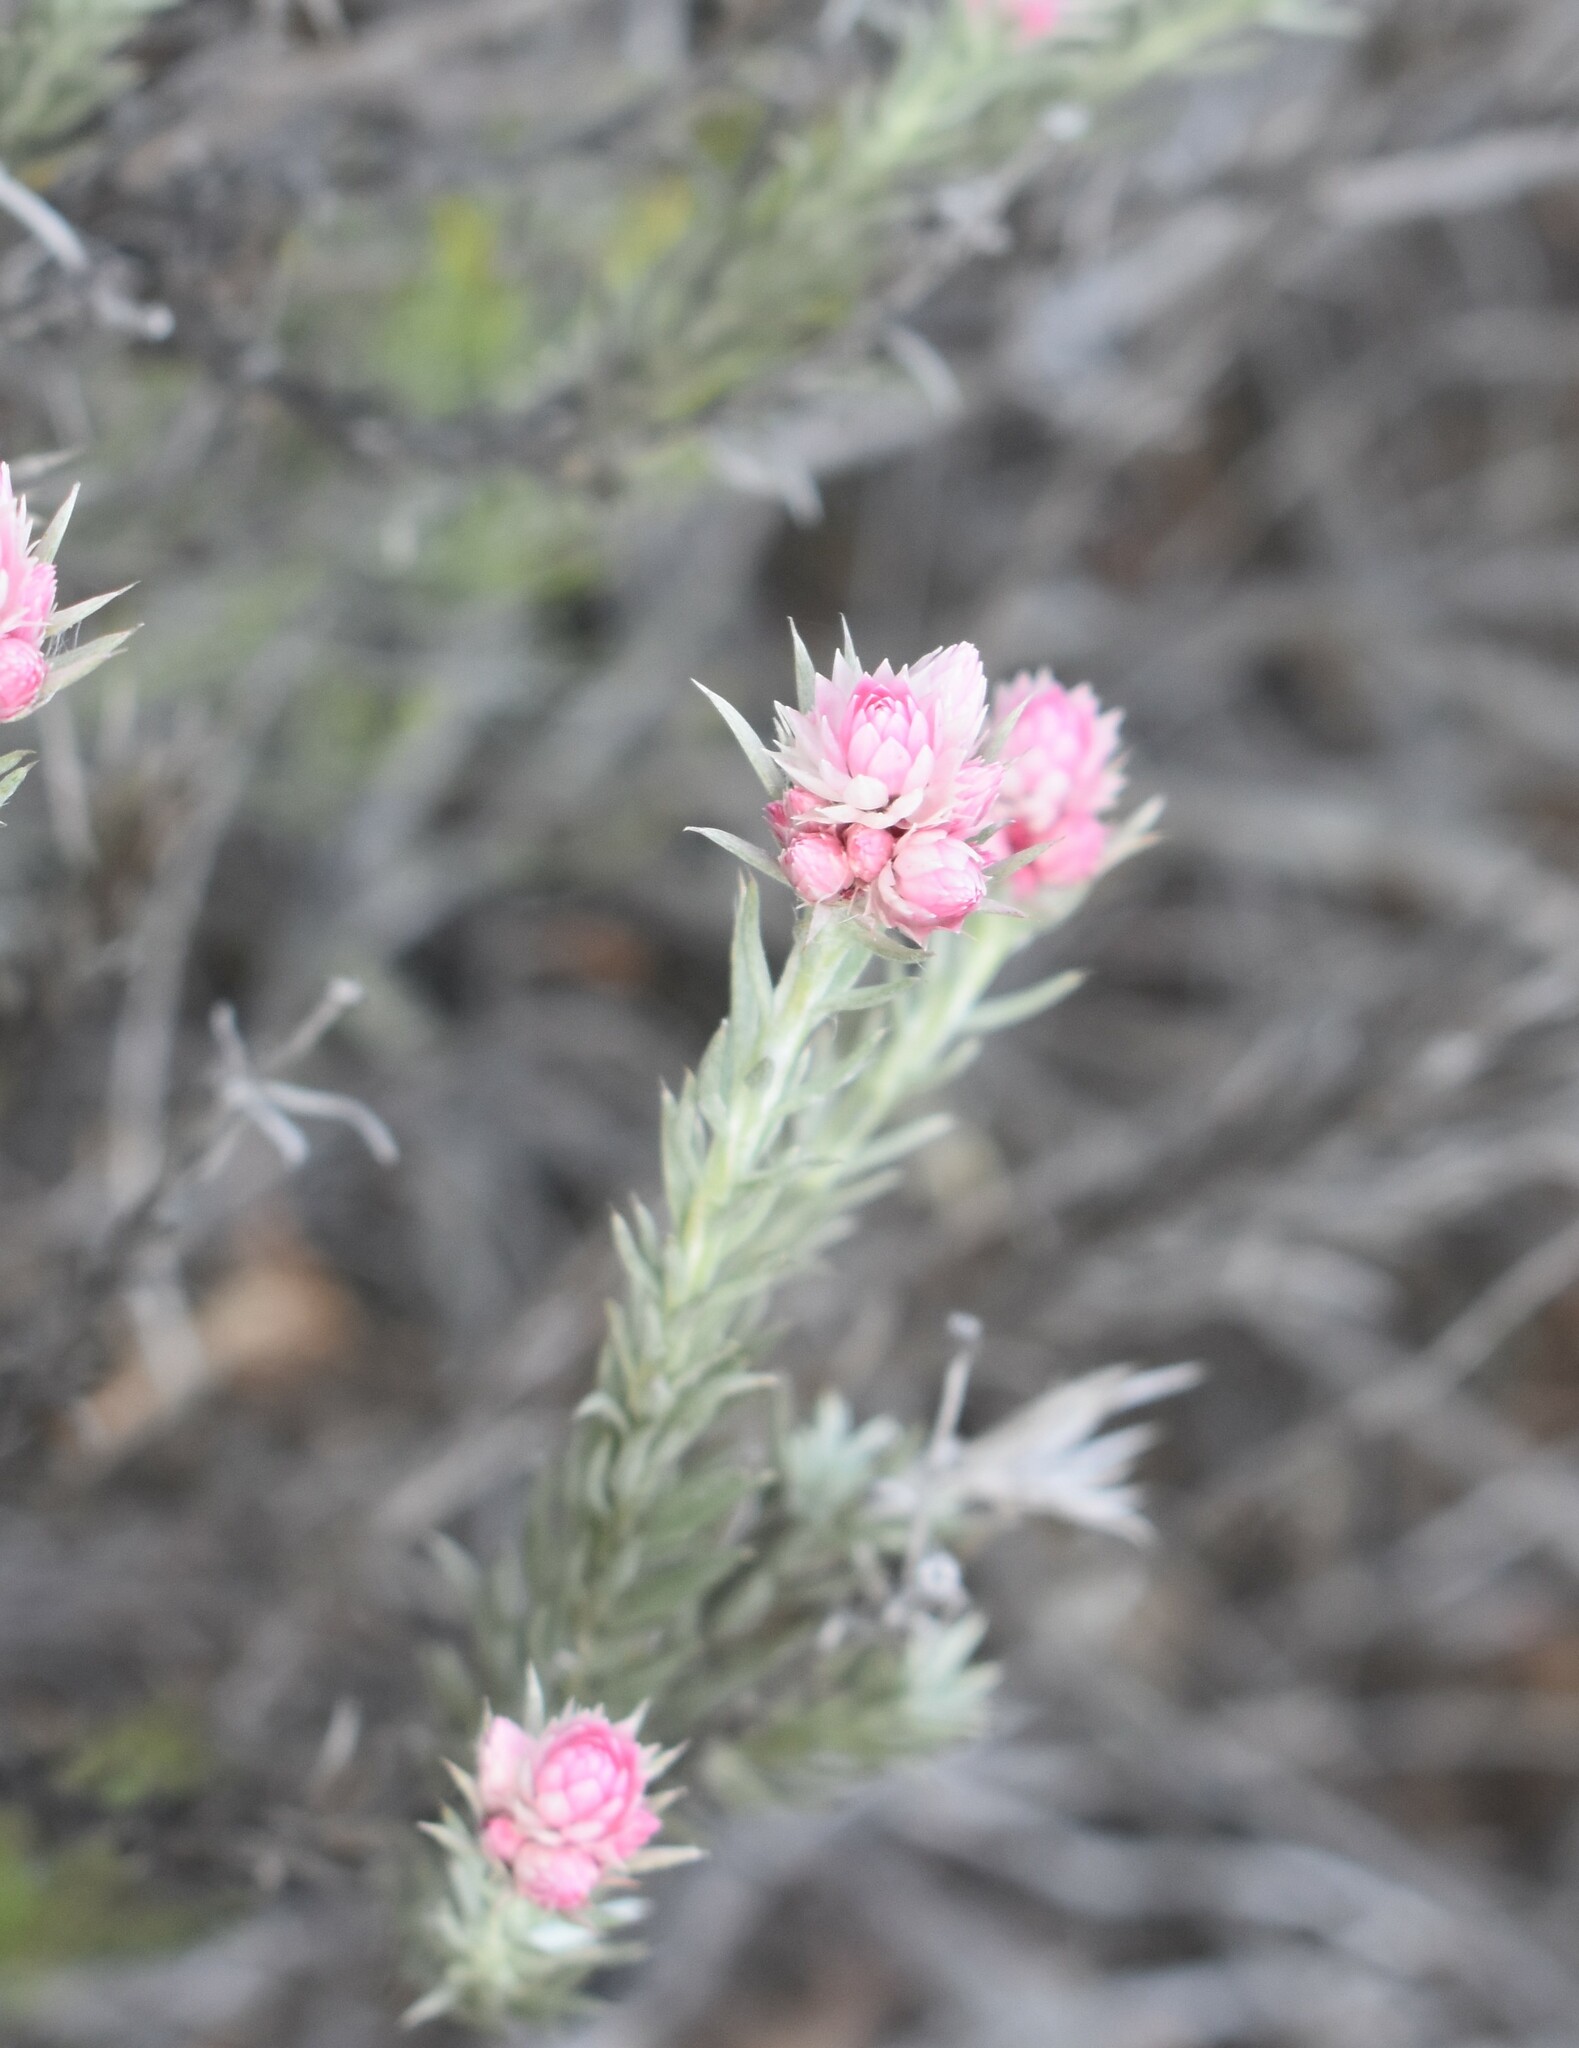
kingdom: Plantae
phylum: Tracheophyta
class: Magnoliopsida
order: Asterales
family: Asteraceae
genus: Achyranthemum
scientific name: Achyranthemum paniculatum
